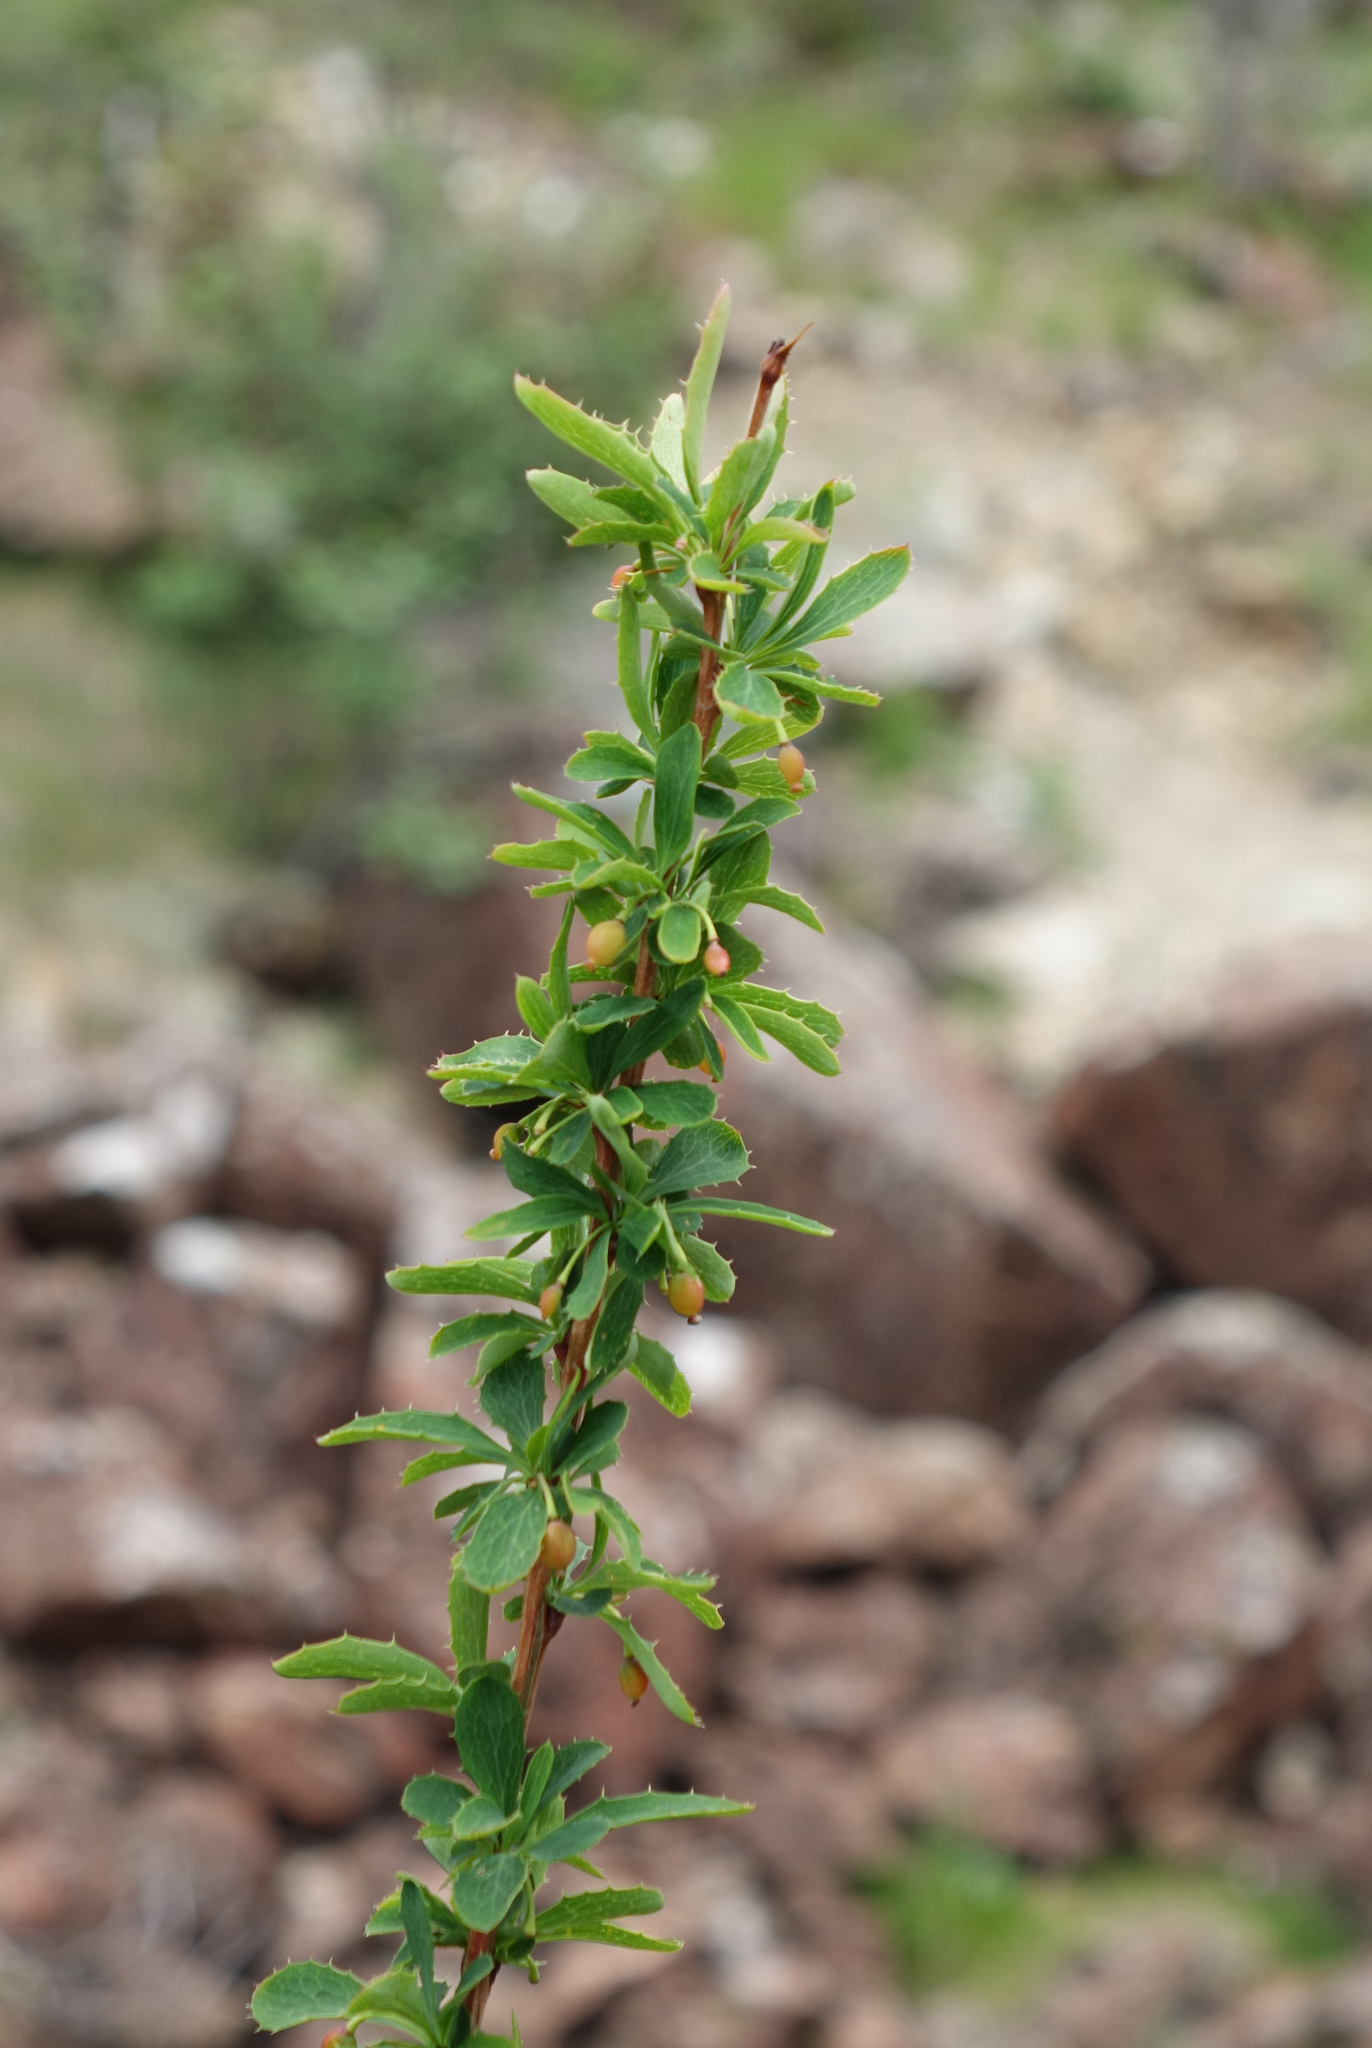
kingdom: Plantae
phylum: Tracheophyta
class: Magnoliopsida
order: Ranunculales
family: Berberidaceae
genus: Berberis
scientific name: Berberis sibirica
